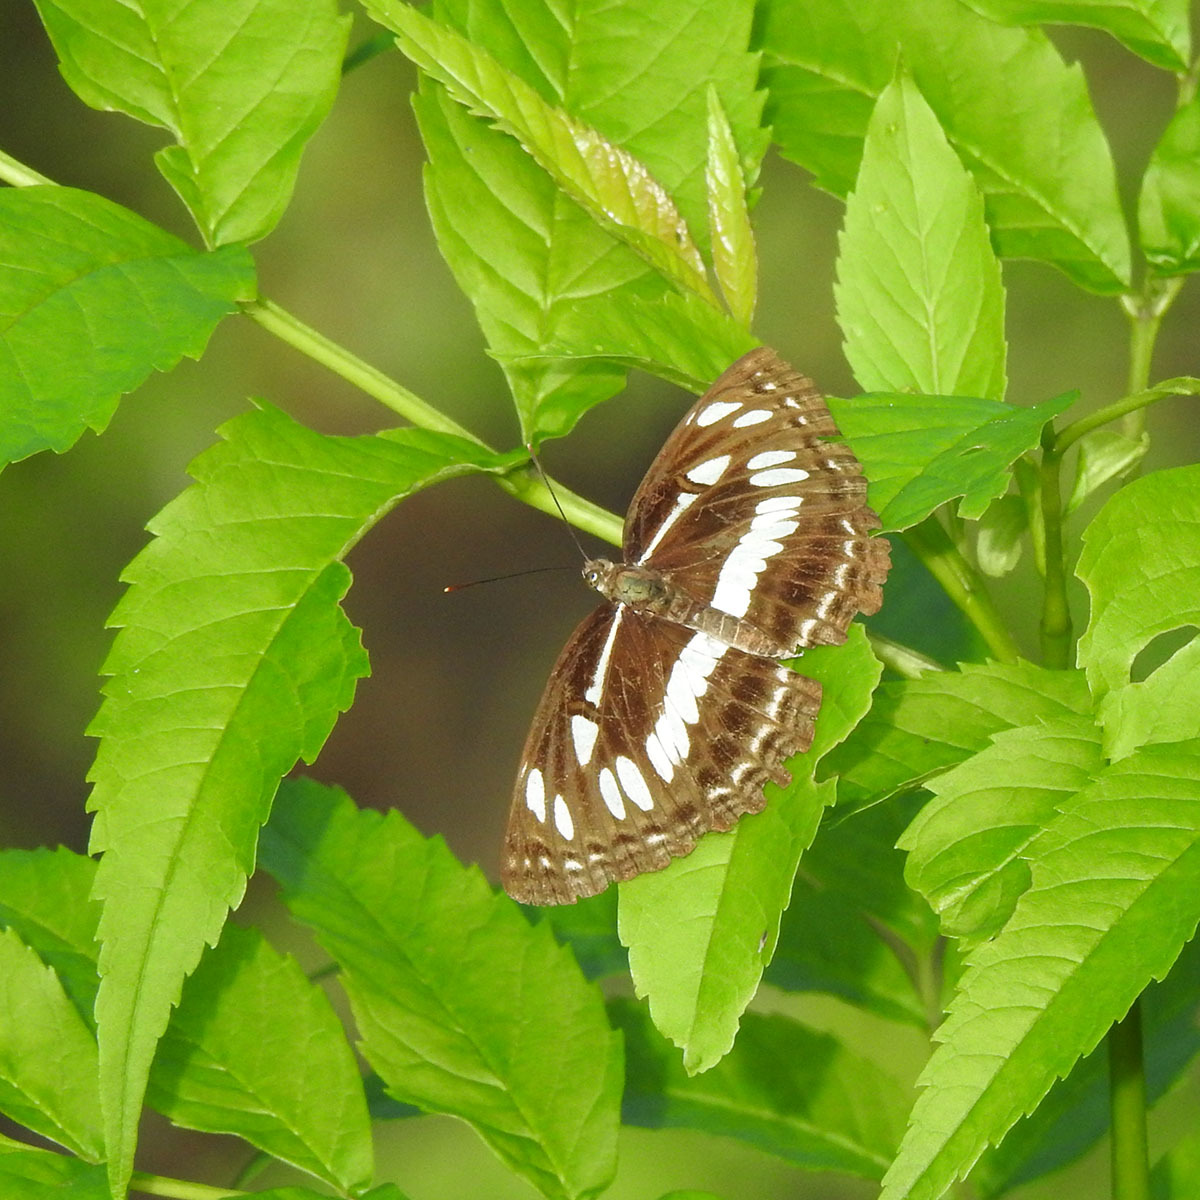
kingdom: Animalia
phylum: Arthropoda
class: Insecta
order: Lepidoptera
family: Nymphalidae
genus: Neptis
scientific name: Neptis jumbah
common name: Chestnut-streaked sailer
